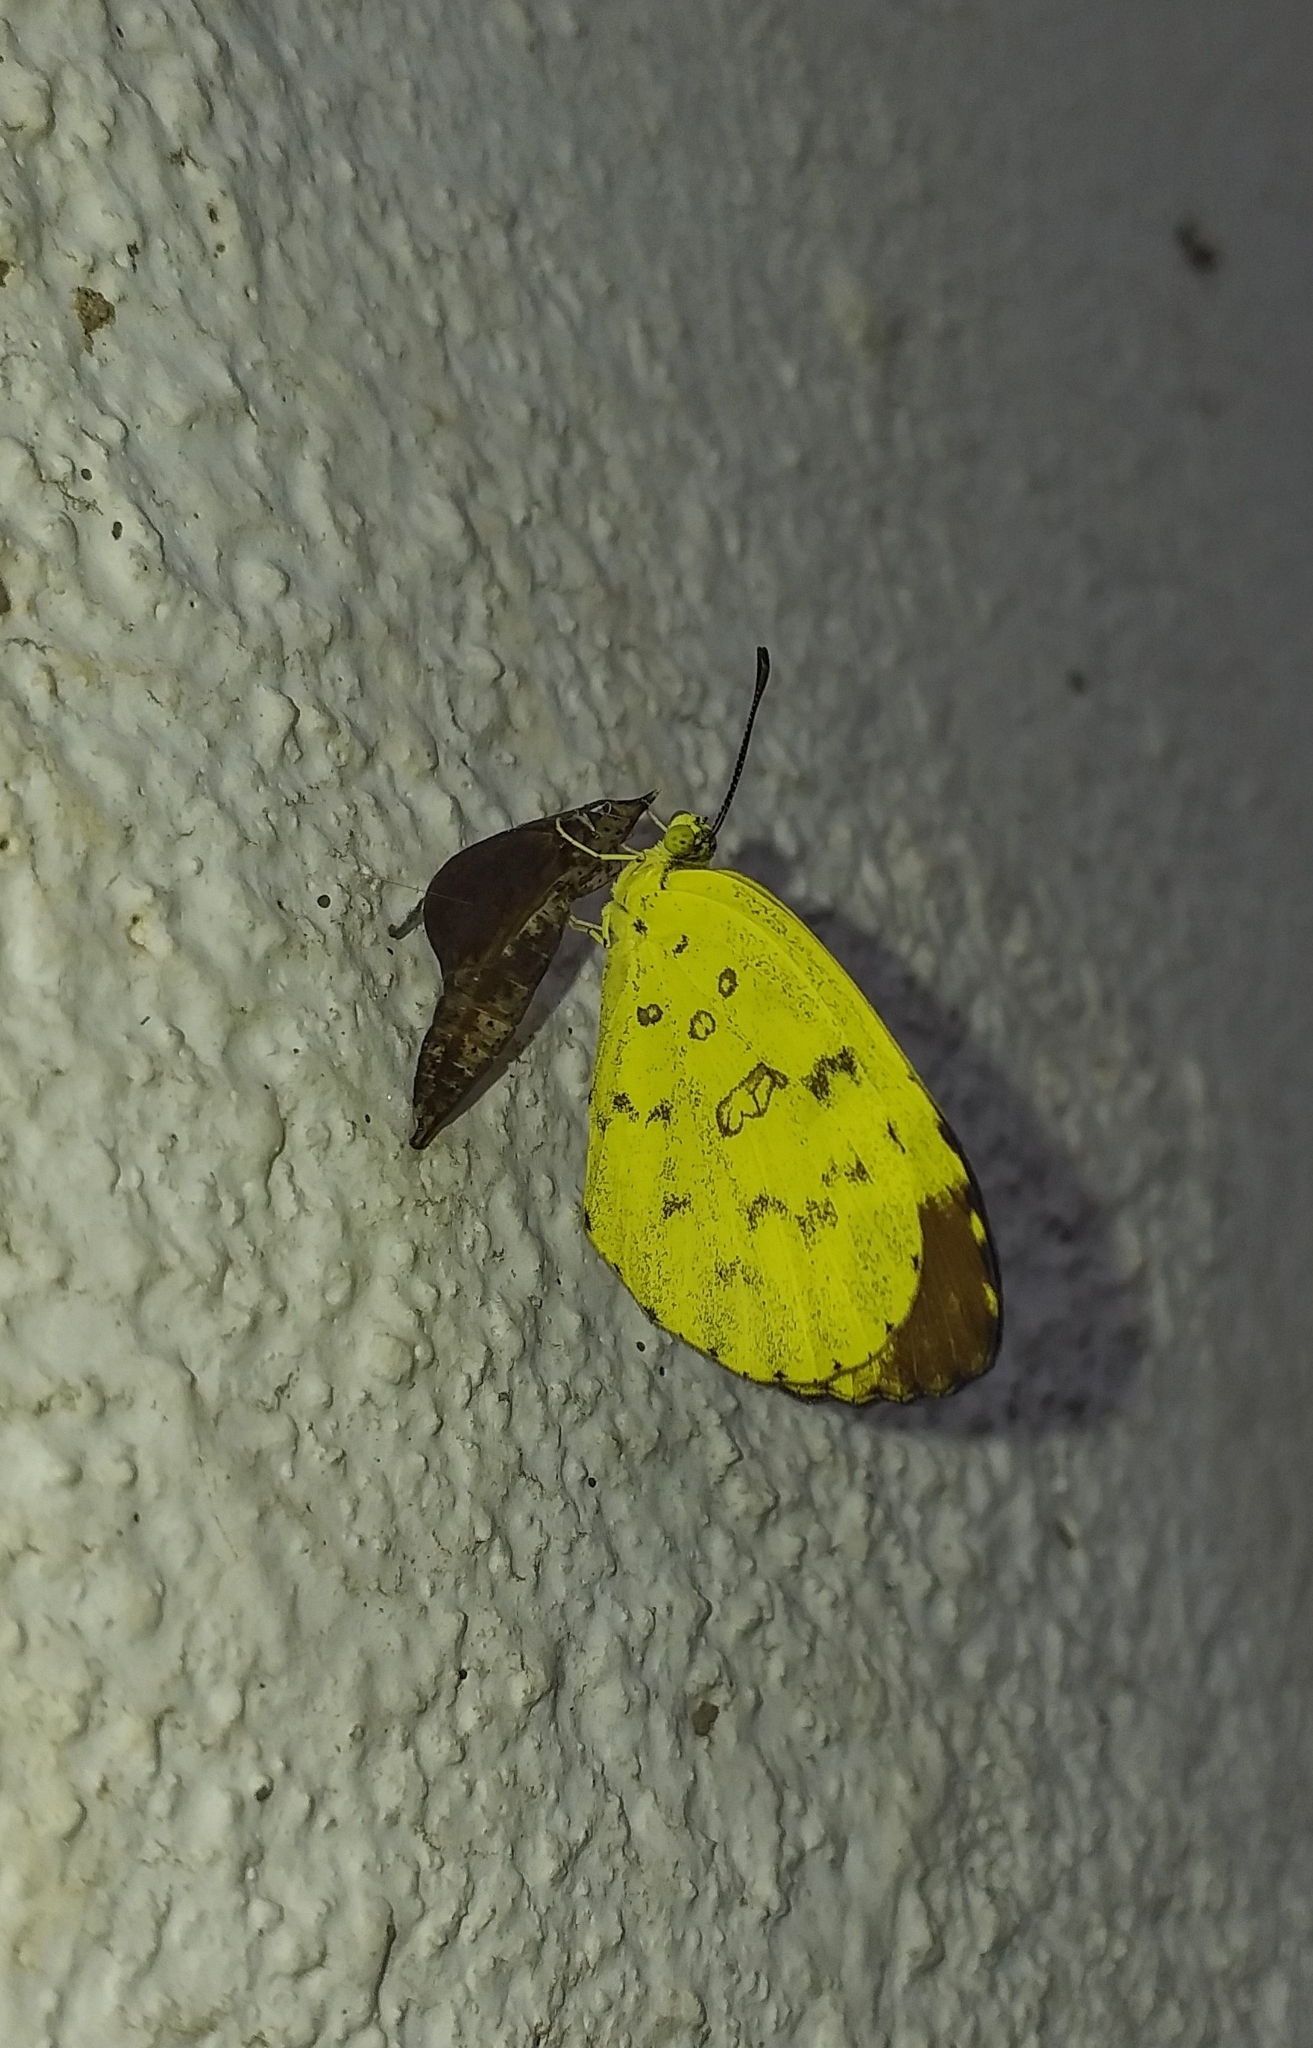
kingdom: Animalia
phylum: Arthropoda
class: Insecta
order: Lepidoptera
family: Pieridae
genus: Eurema
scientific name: Eurema blanda
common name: Three-spot grass yellow
